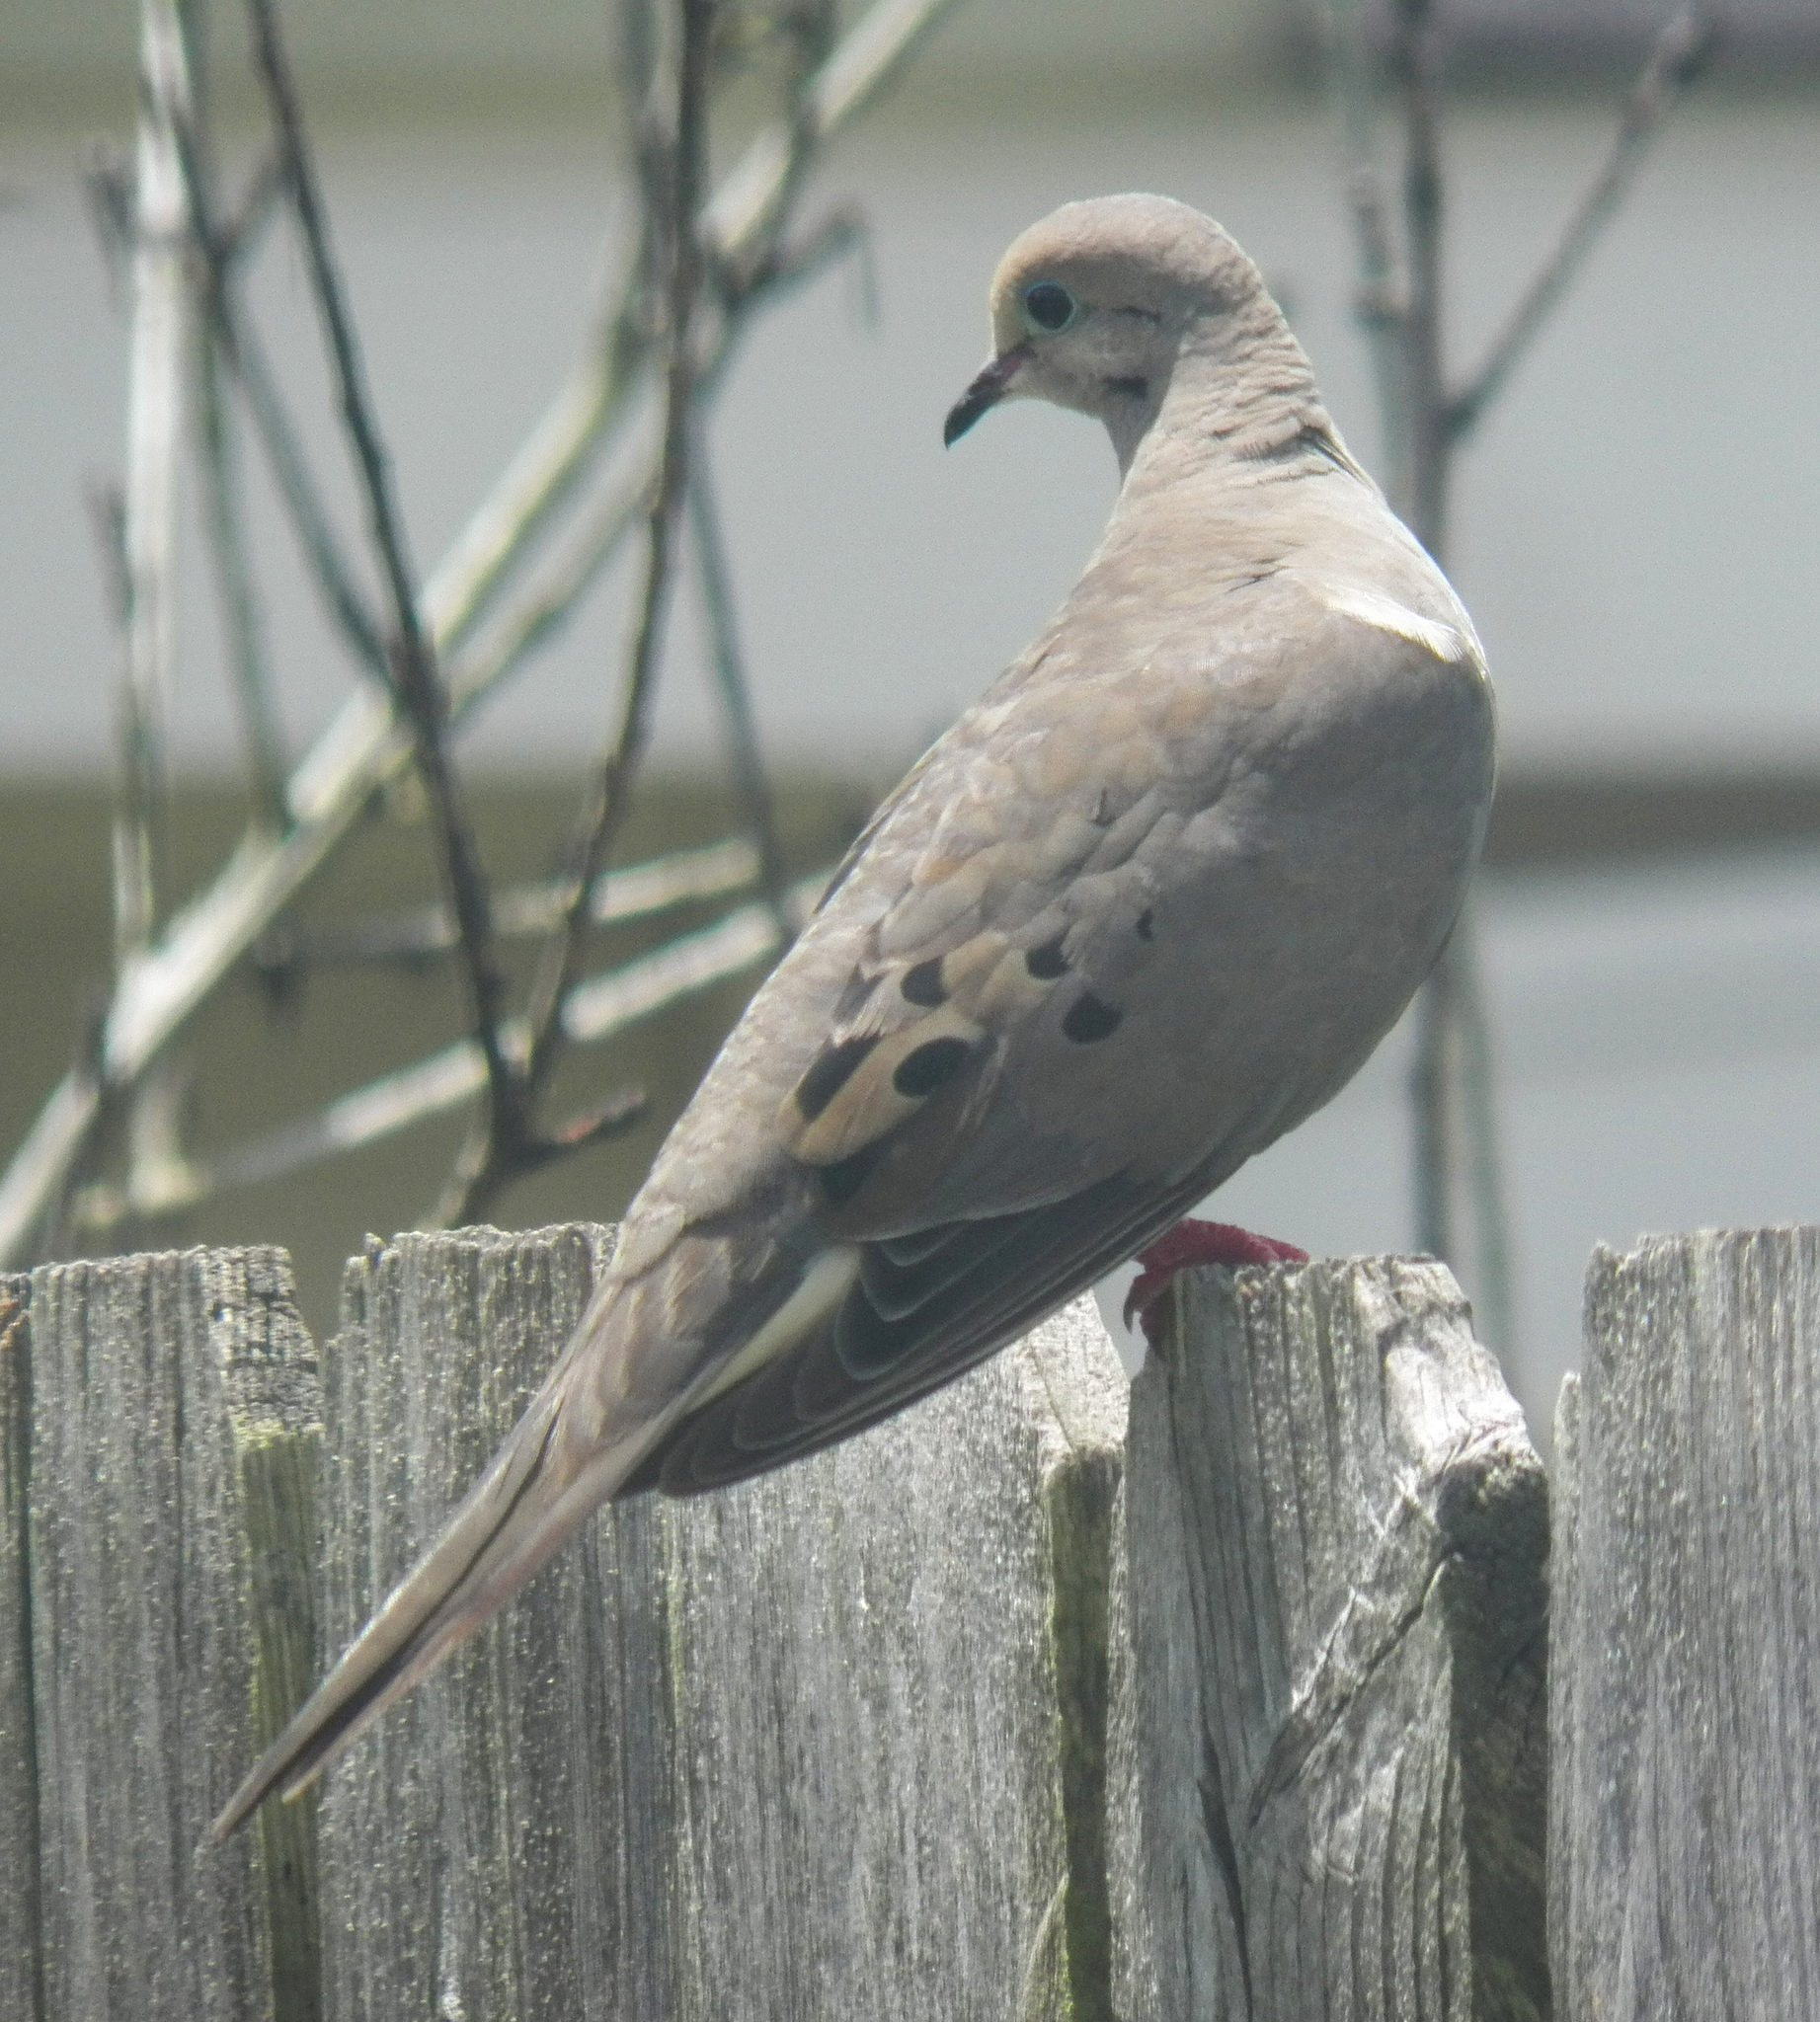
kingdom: Animalia
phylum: Chordata
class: Aves
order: Columbiformes
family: Columbidae
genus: Zenaida
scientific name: Zenaida macroura
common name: Mourning dove
